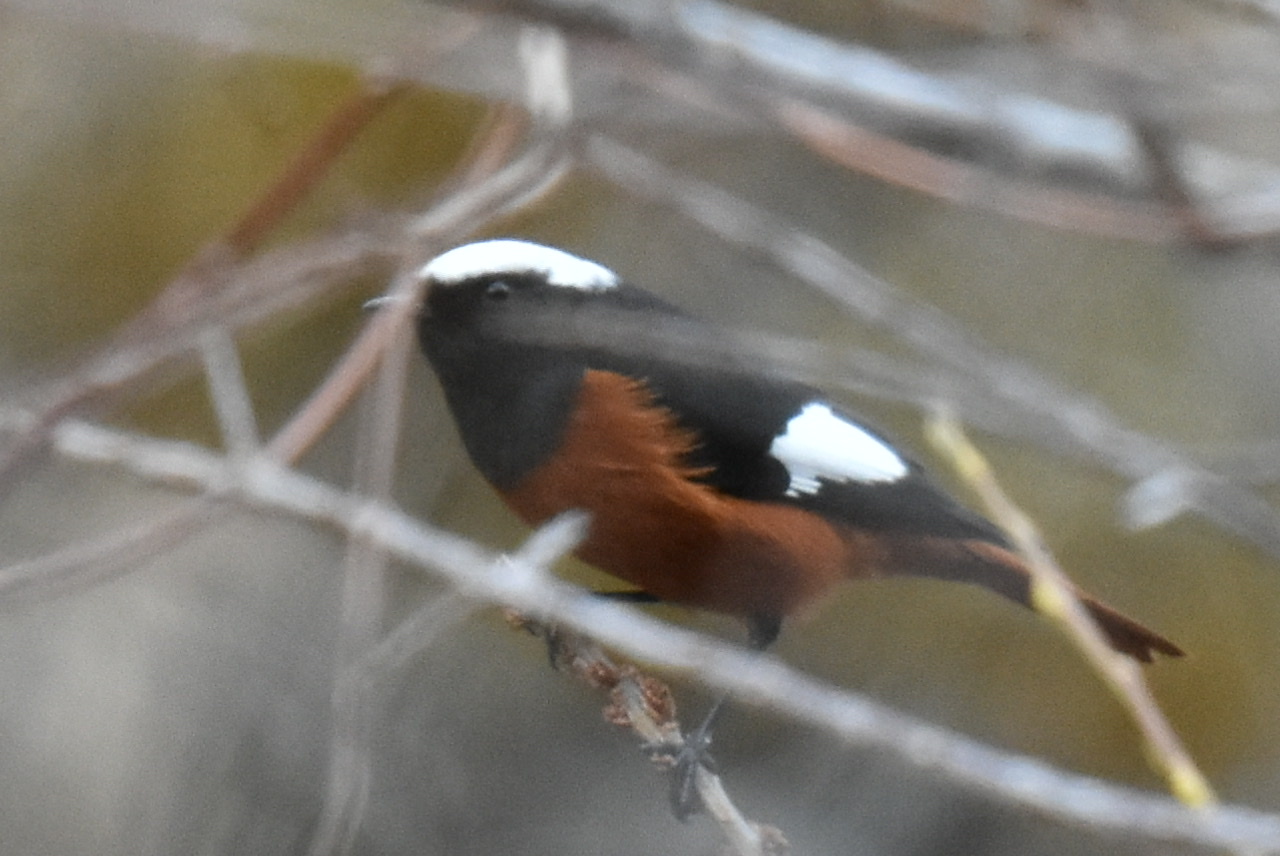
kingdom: Animalia
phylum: Chordata
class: Aves
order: Passeriformes
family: Muscicapidae
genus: Phoenicurus
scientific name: Phoenicurus erythrogastrus
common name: Güldenstädt's redstart
